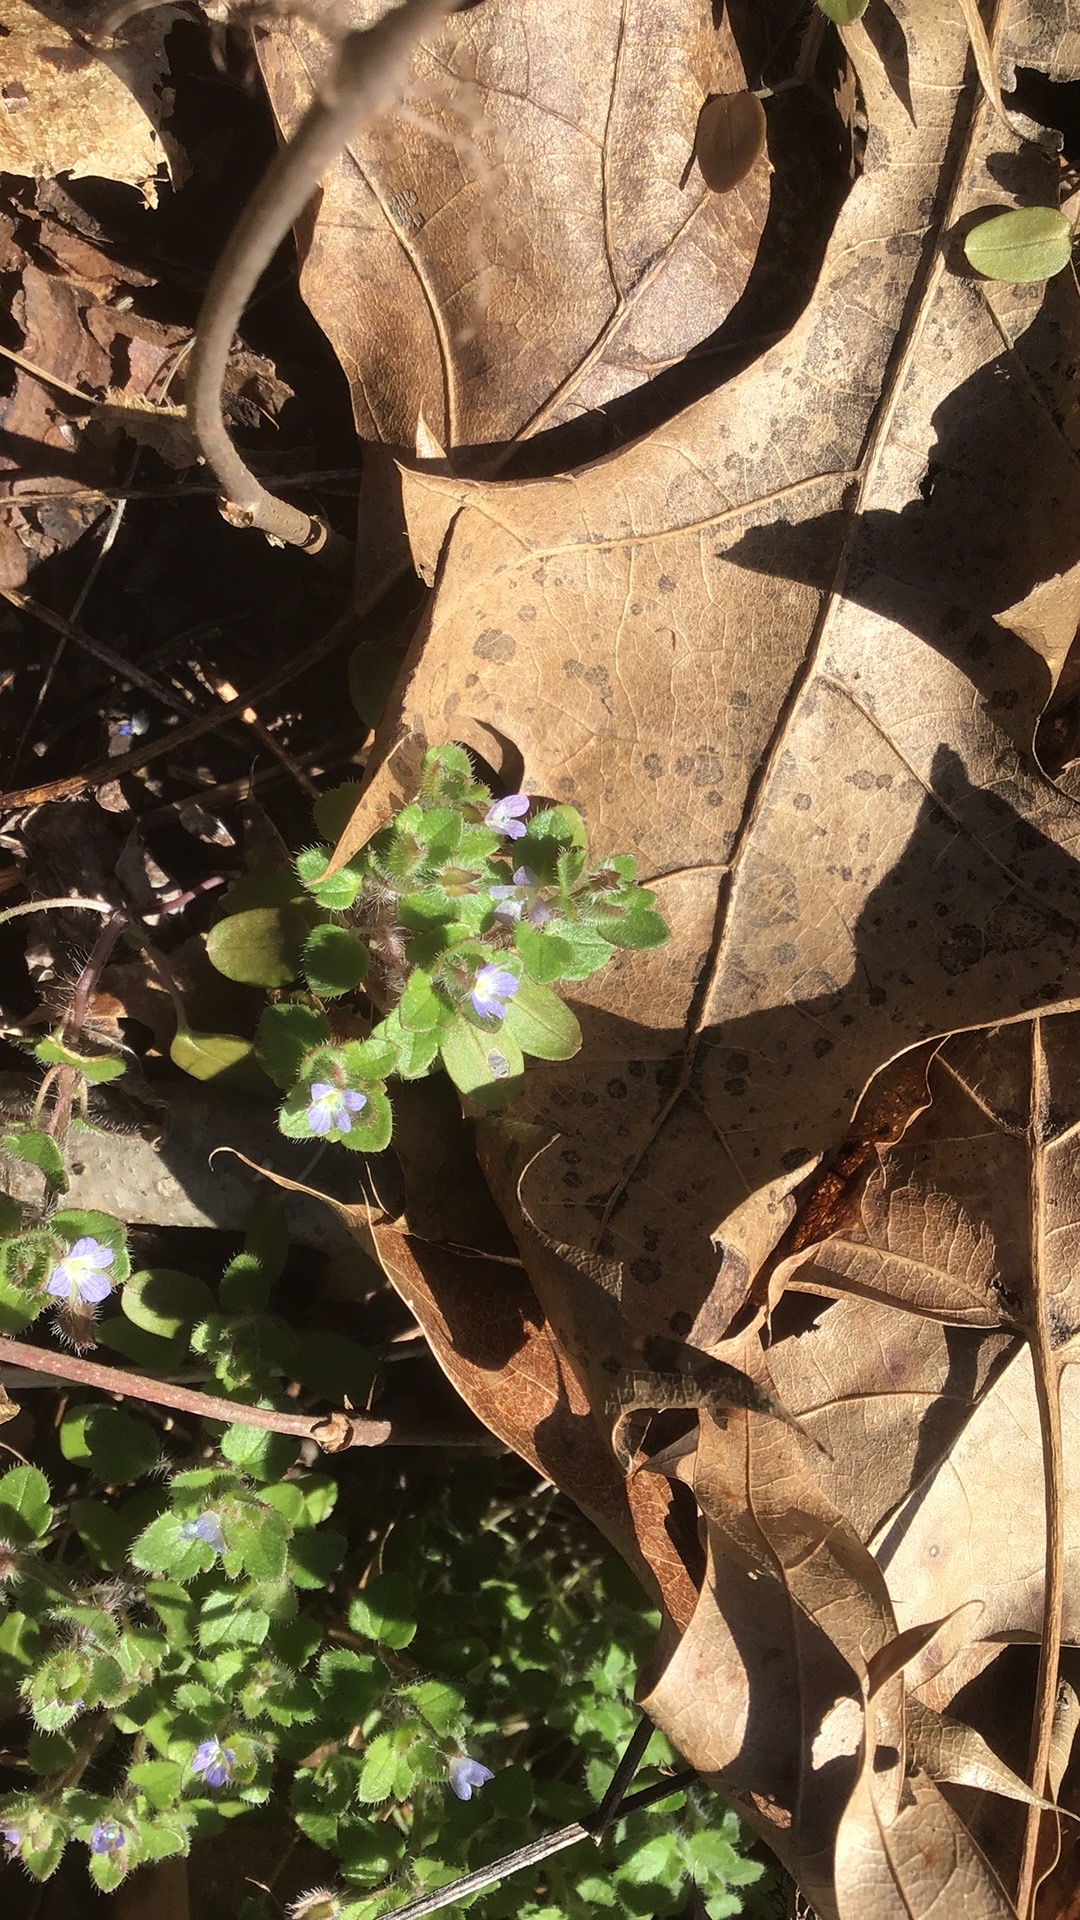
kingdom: Plantae
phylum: Tracheophyta
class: Magnoliopsida
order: Lamiales
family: Plantaginaceae
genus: Veronica
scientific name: Veronica hederifolia
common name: Ivy-leaved speedwell
